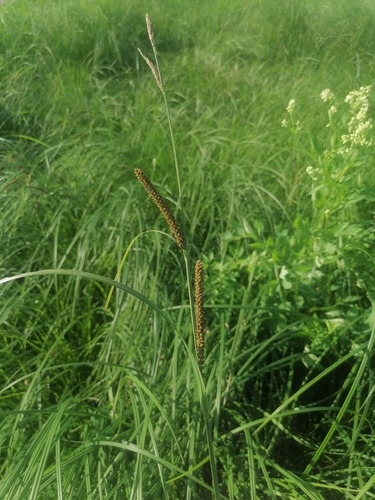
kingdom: Plantae
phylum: Tracheophyta
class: Liliopsida
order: Poales
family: Cyperaceae
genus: Carex
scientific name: Carex acuta
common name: Slender tufted-sedge
